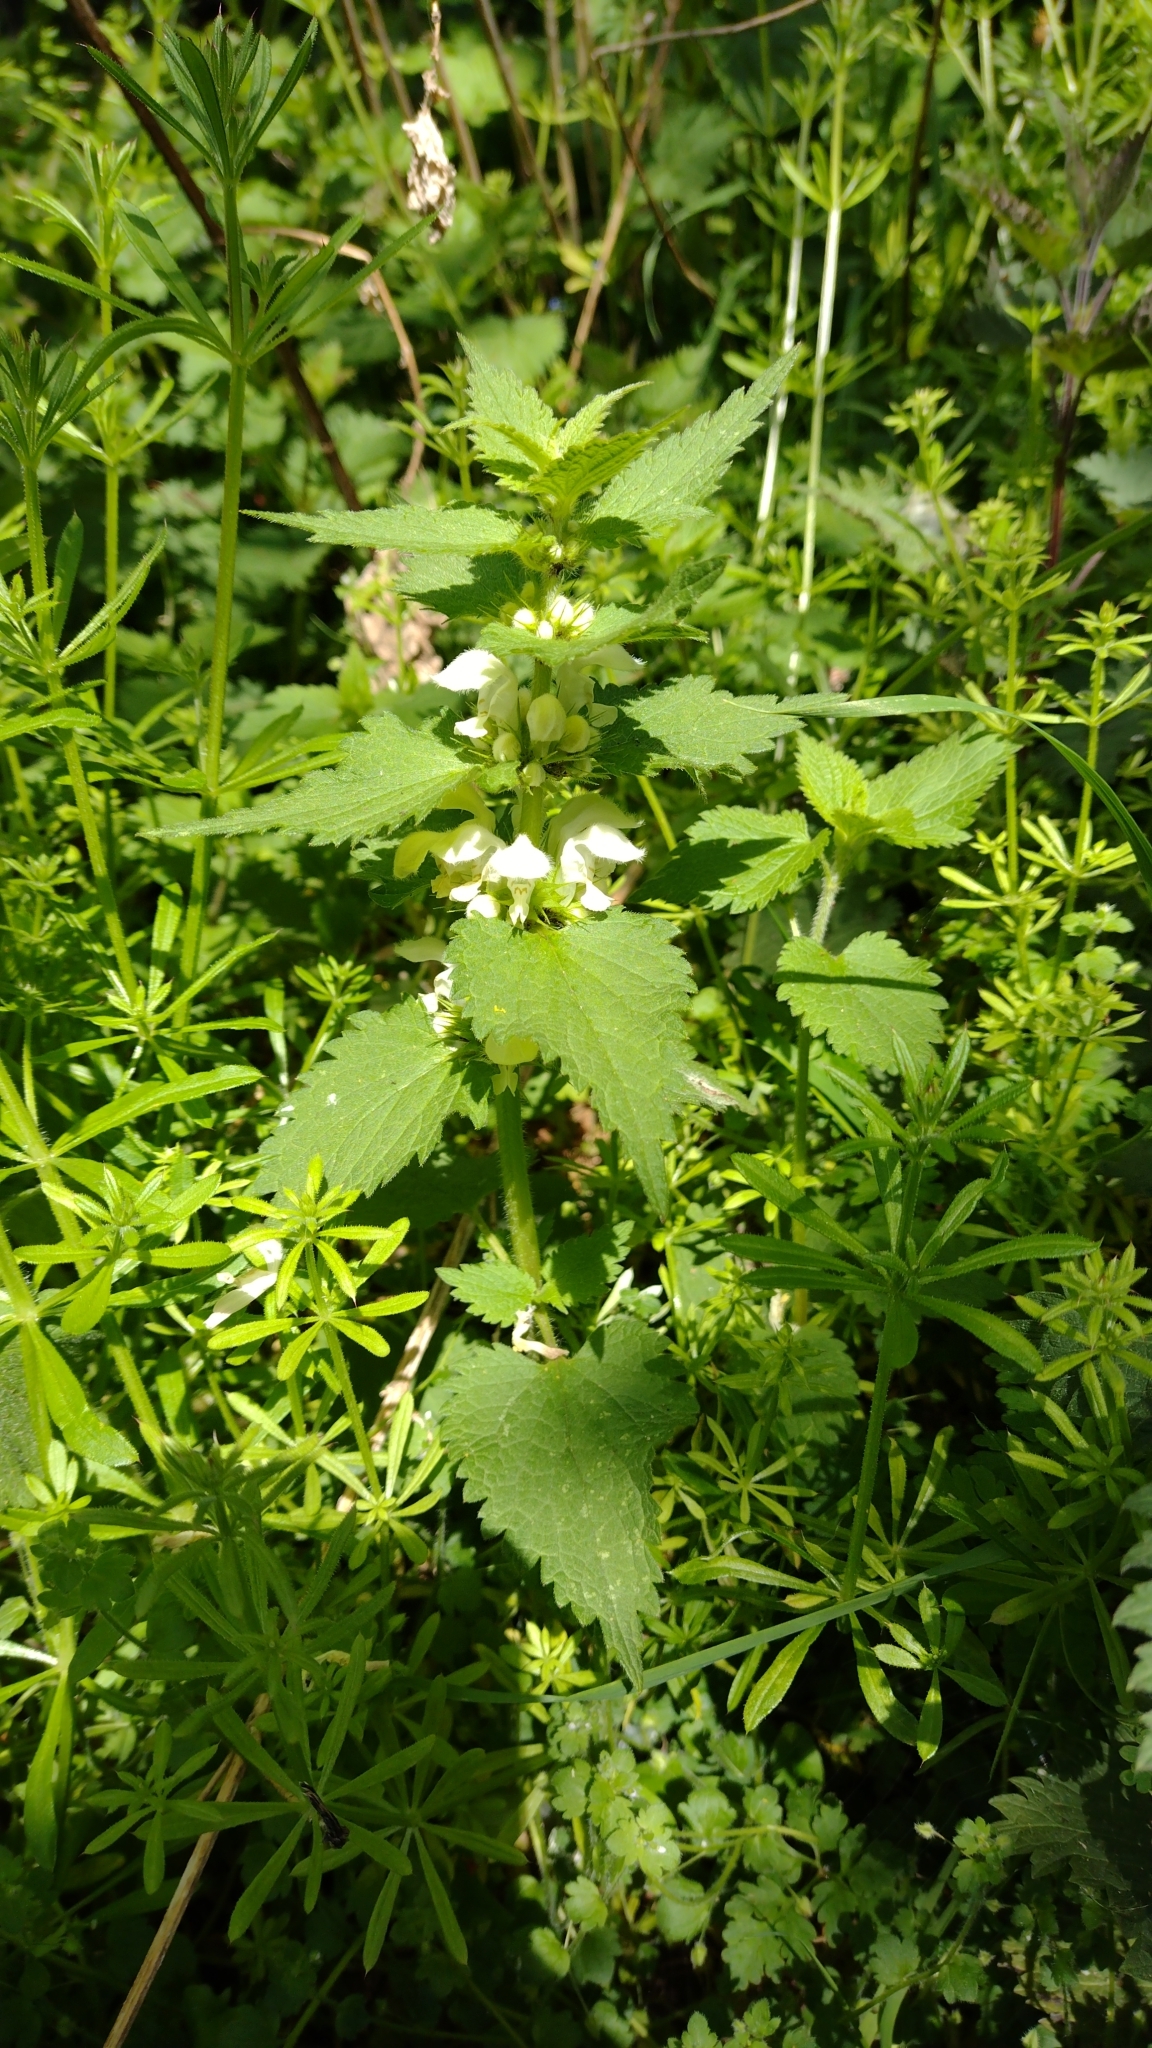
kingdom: Plantae
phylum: Tracheophyta
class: Magnoliopsida
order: Lamiales
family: Lamiaceae
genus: Lamium
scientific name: Lamium album
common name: White dead-nettle
